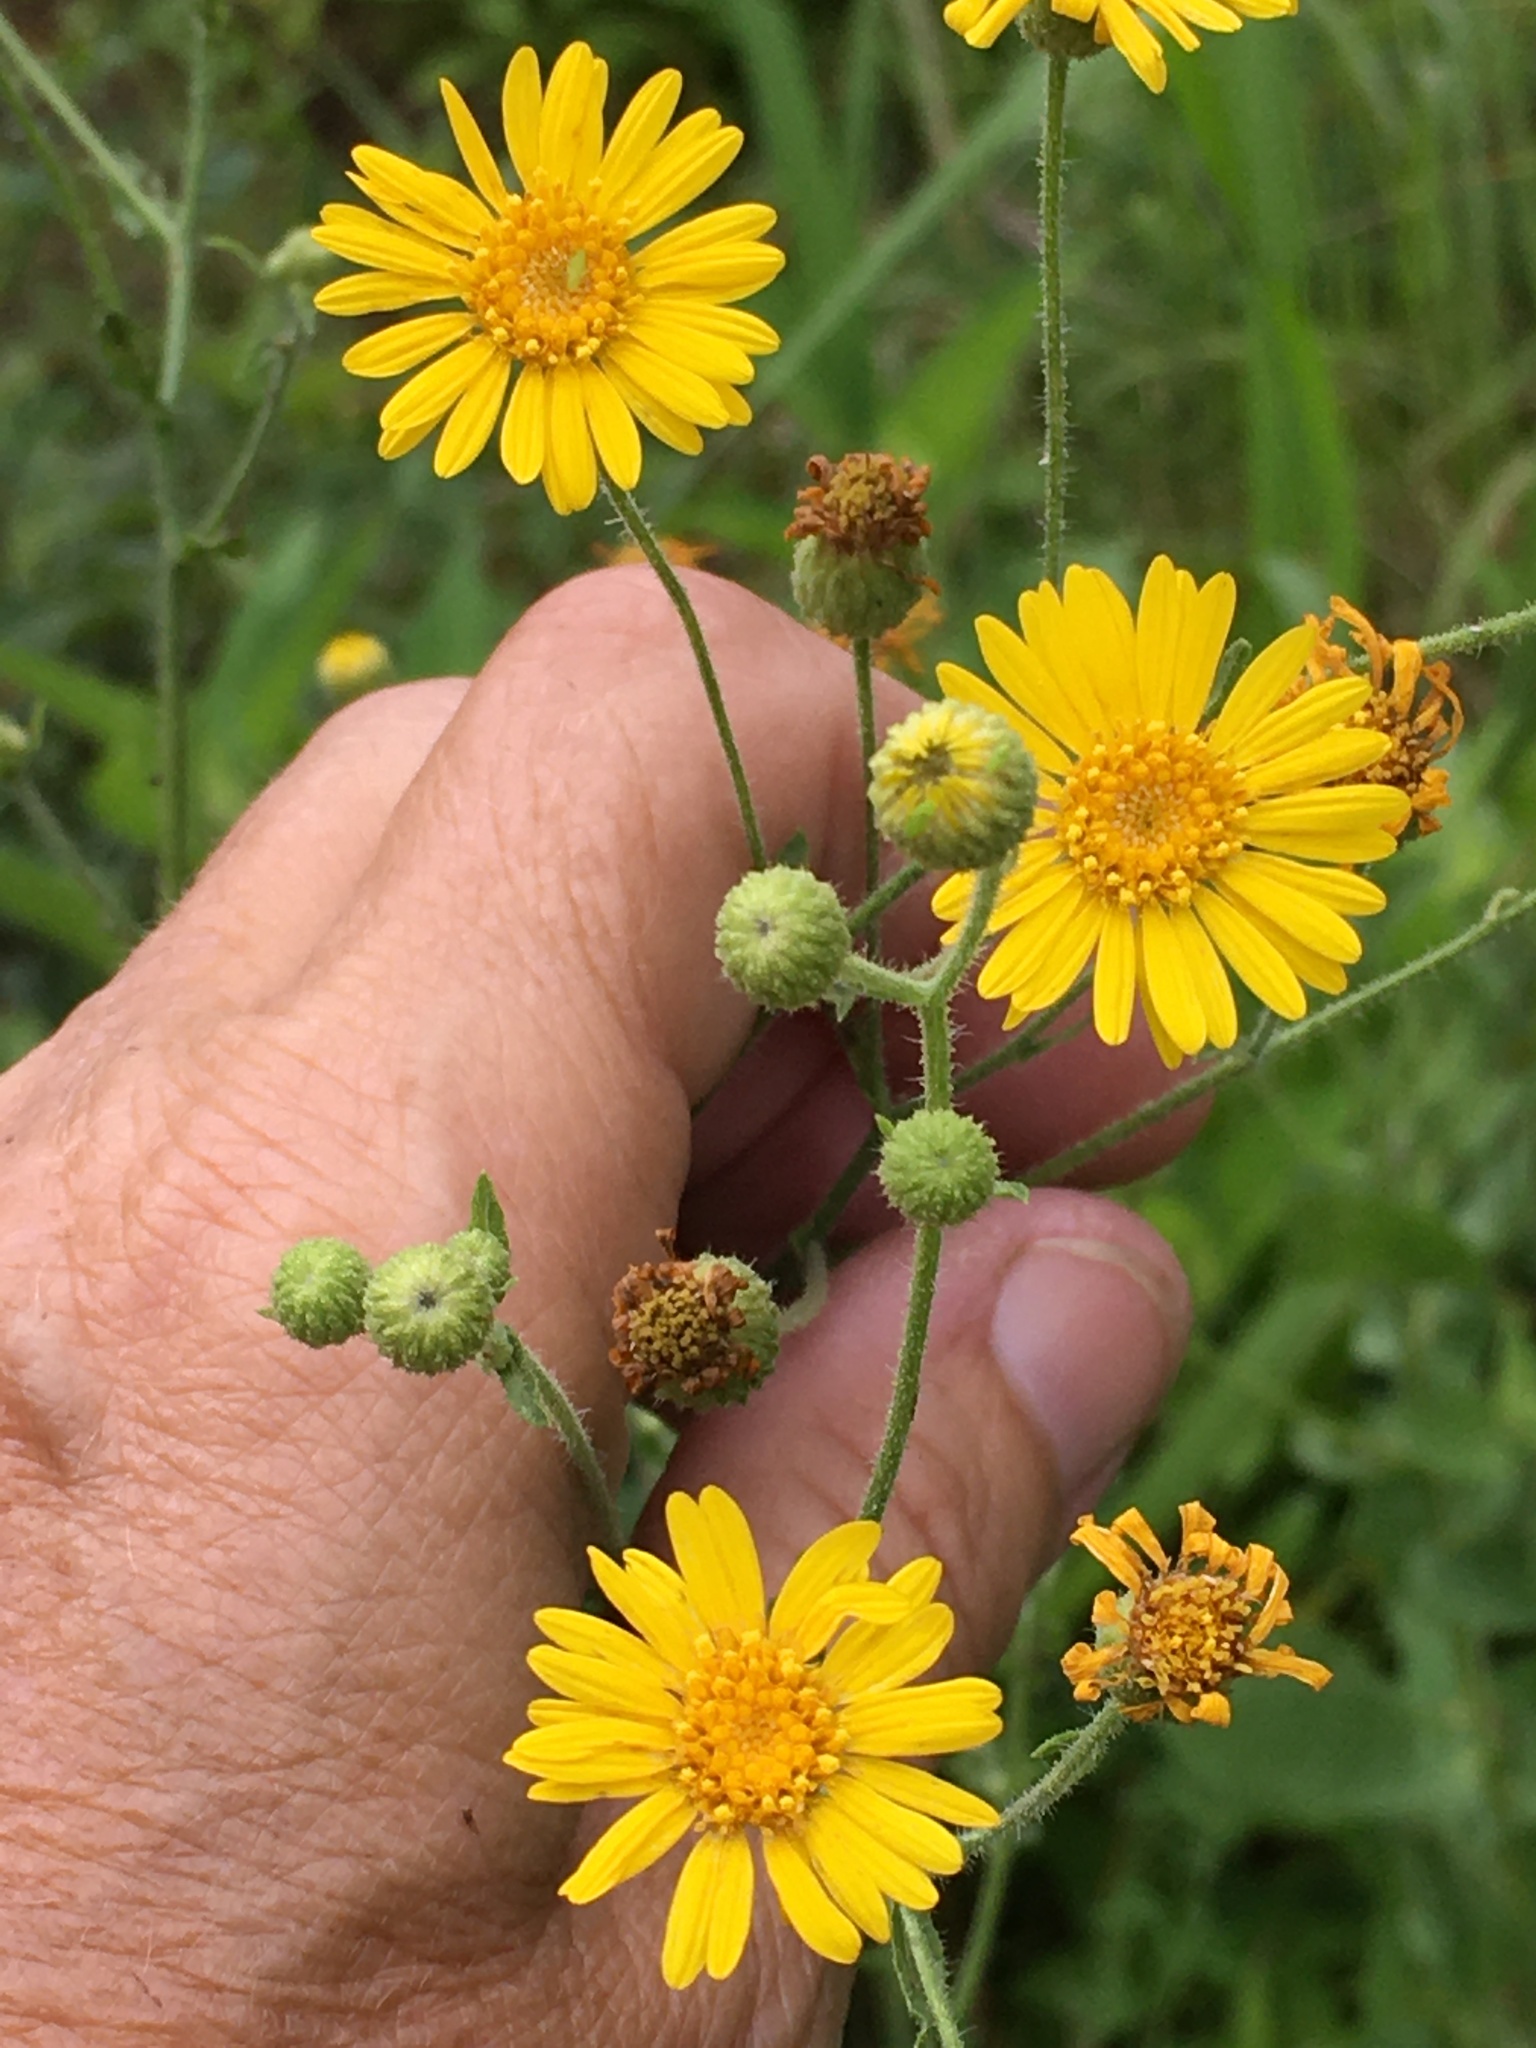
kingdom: Plantae
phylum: Tracheophyta
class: Magnoliopsida
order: Asterales
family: Asteraceae
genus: Heterotheca
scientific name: Heterotheca subaxillaris
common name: Camphorweed
